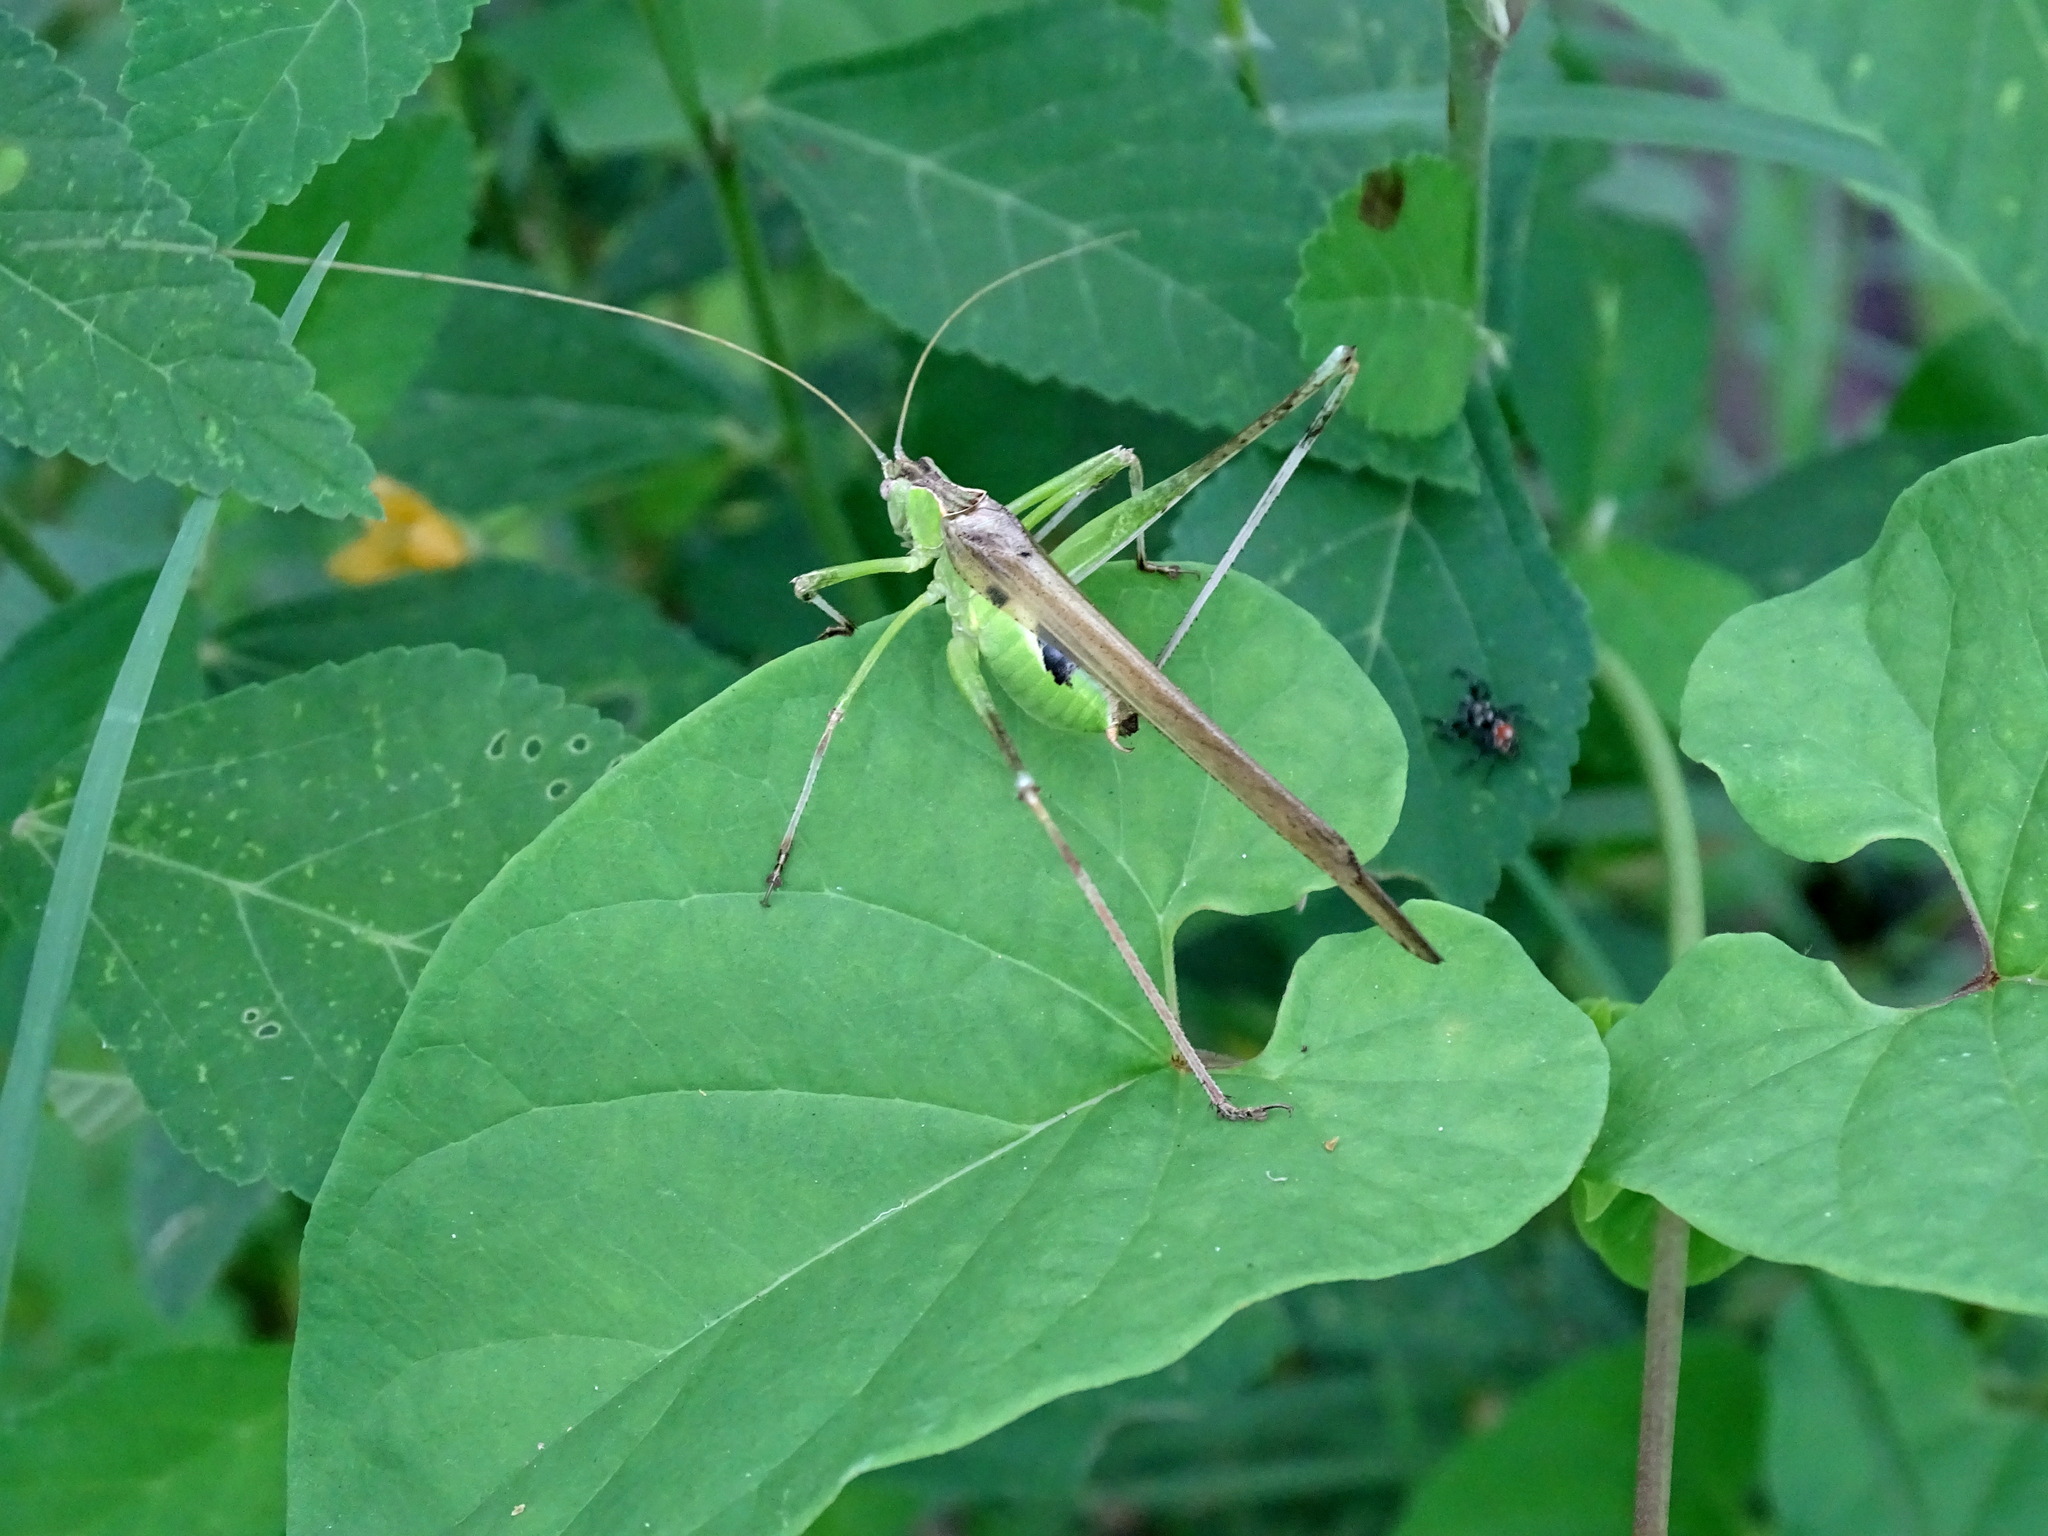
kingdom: Animalia
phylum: Arthropoda
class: Insecta
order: Orthoptera
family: Tettigoniidae
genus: Insara
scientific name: Insara phthisica
